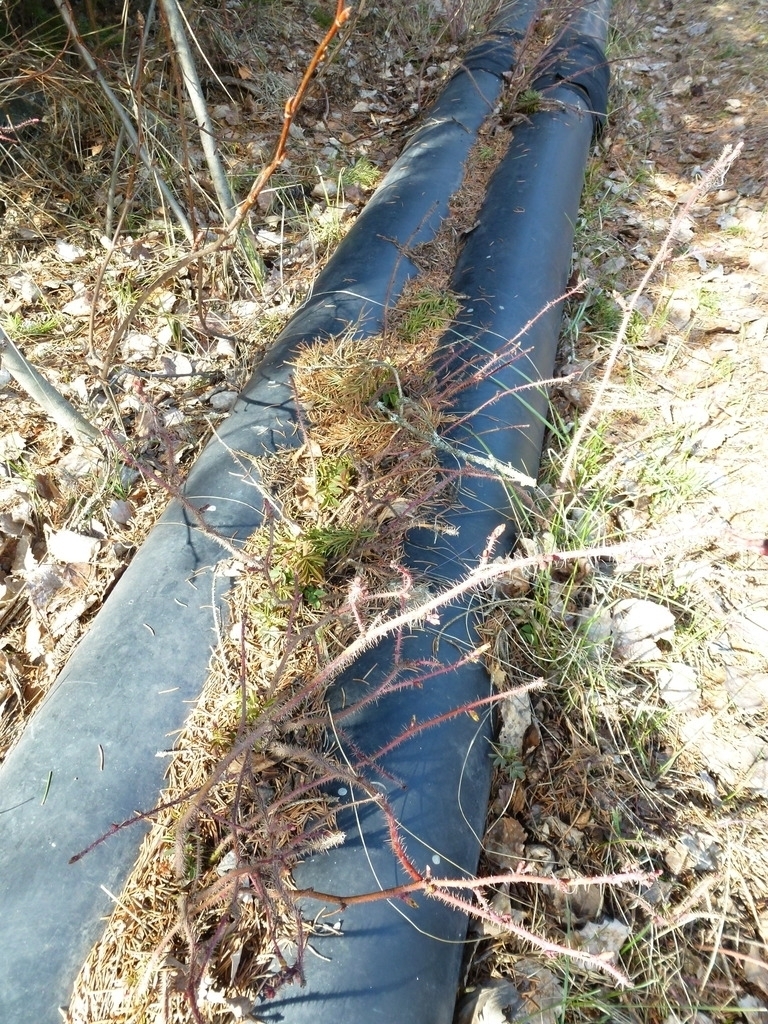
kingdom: Plantae
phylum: Tracheophyta
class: Magnoliopsida
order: Rosales
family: Rosaceae
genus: Rosa
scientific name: Rosa acicularis
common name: Prickly rose
